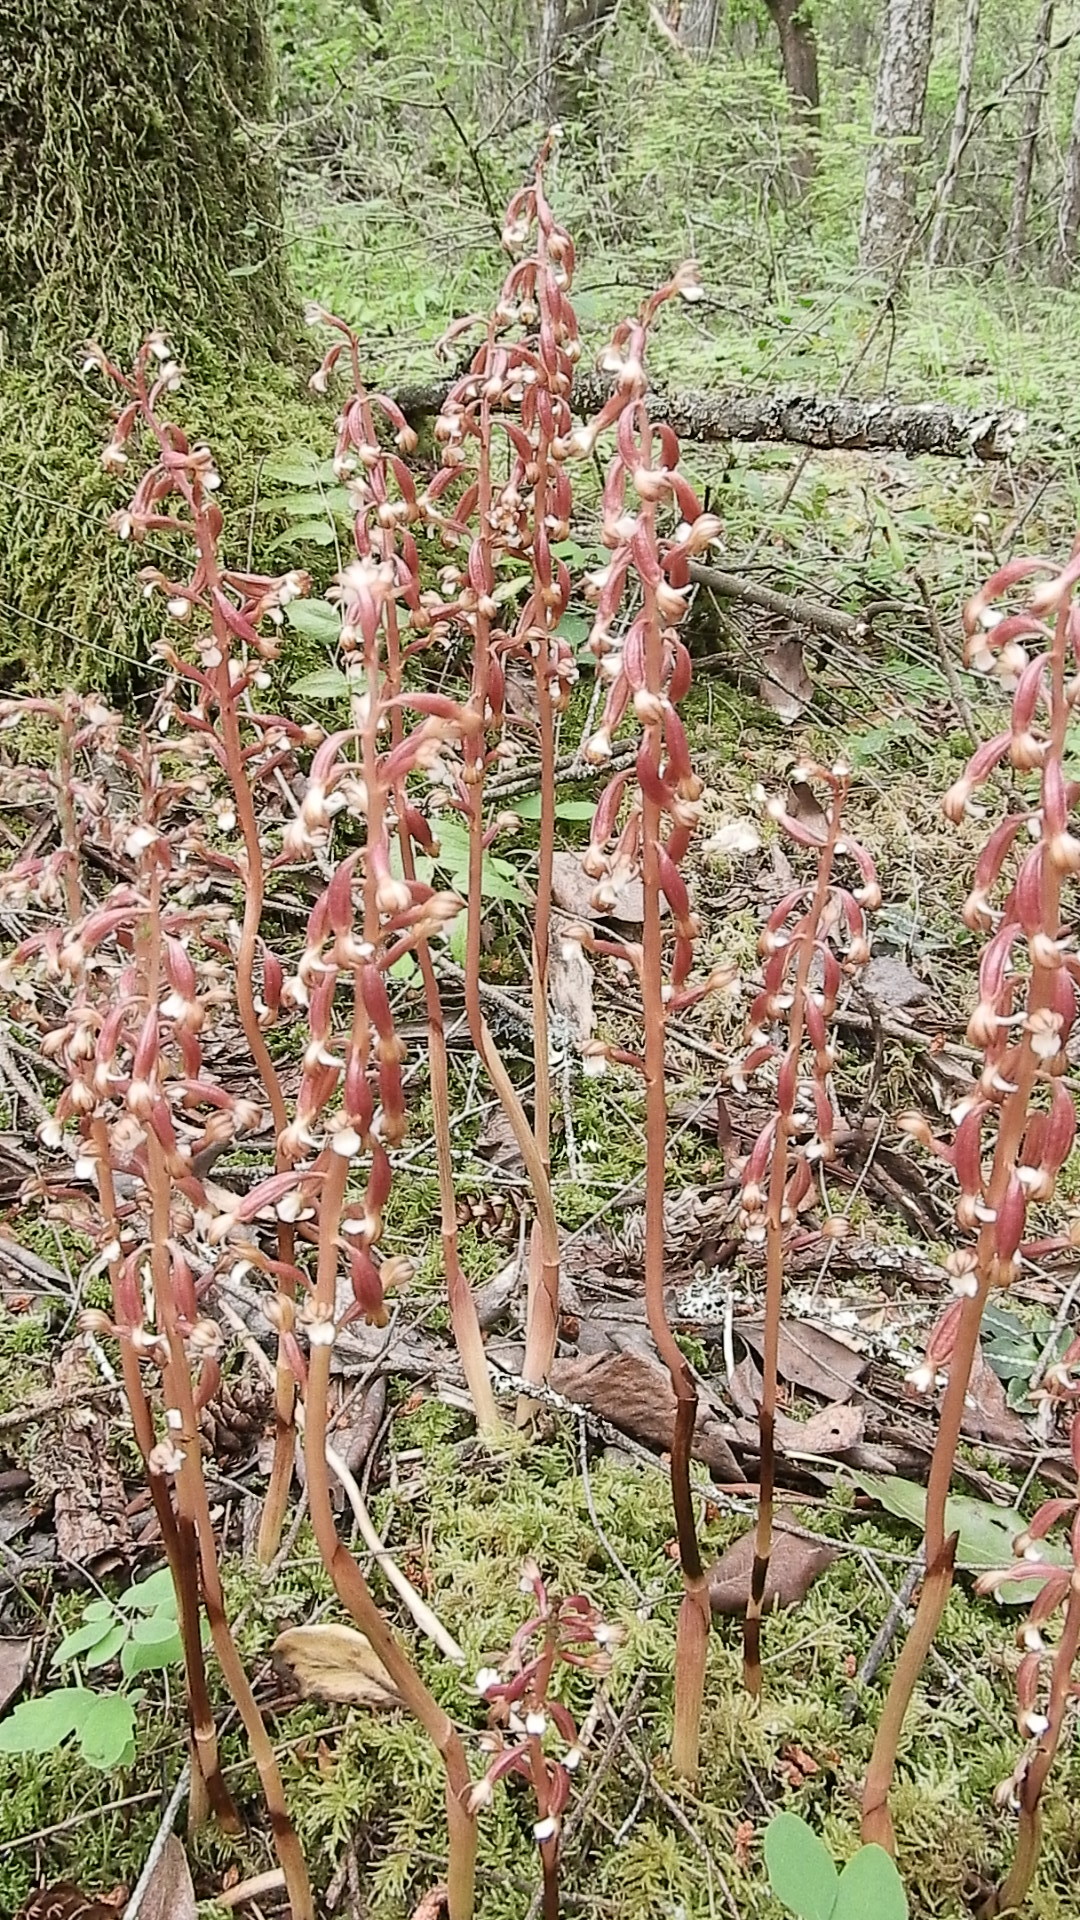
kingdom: Plantae
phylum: Tracheophyta
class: Liliopsida
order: Asparagales
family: Orchidaceae
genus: Corallorhiza
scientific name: Corallorhiza maculata
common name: Spotted coralroot
